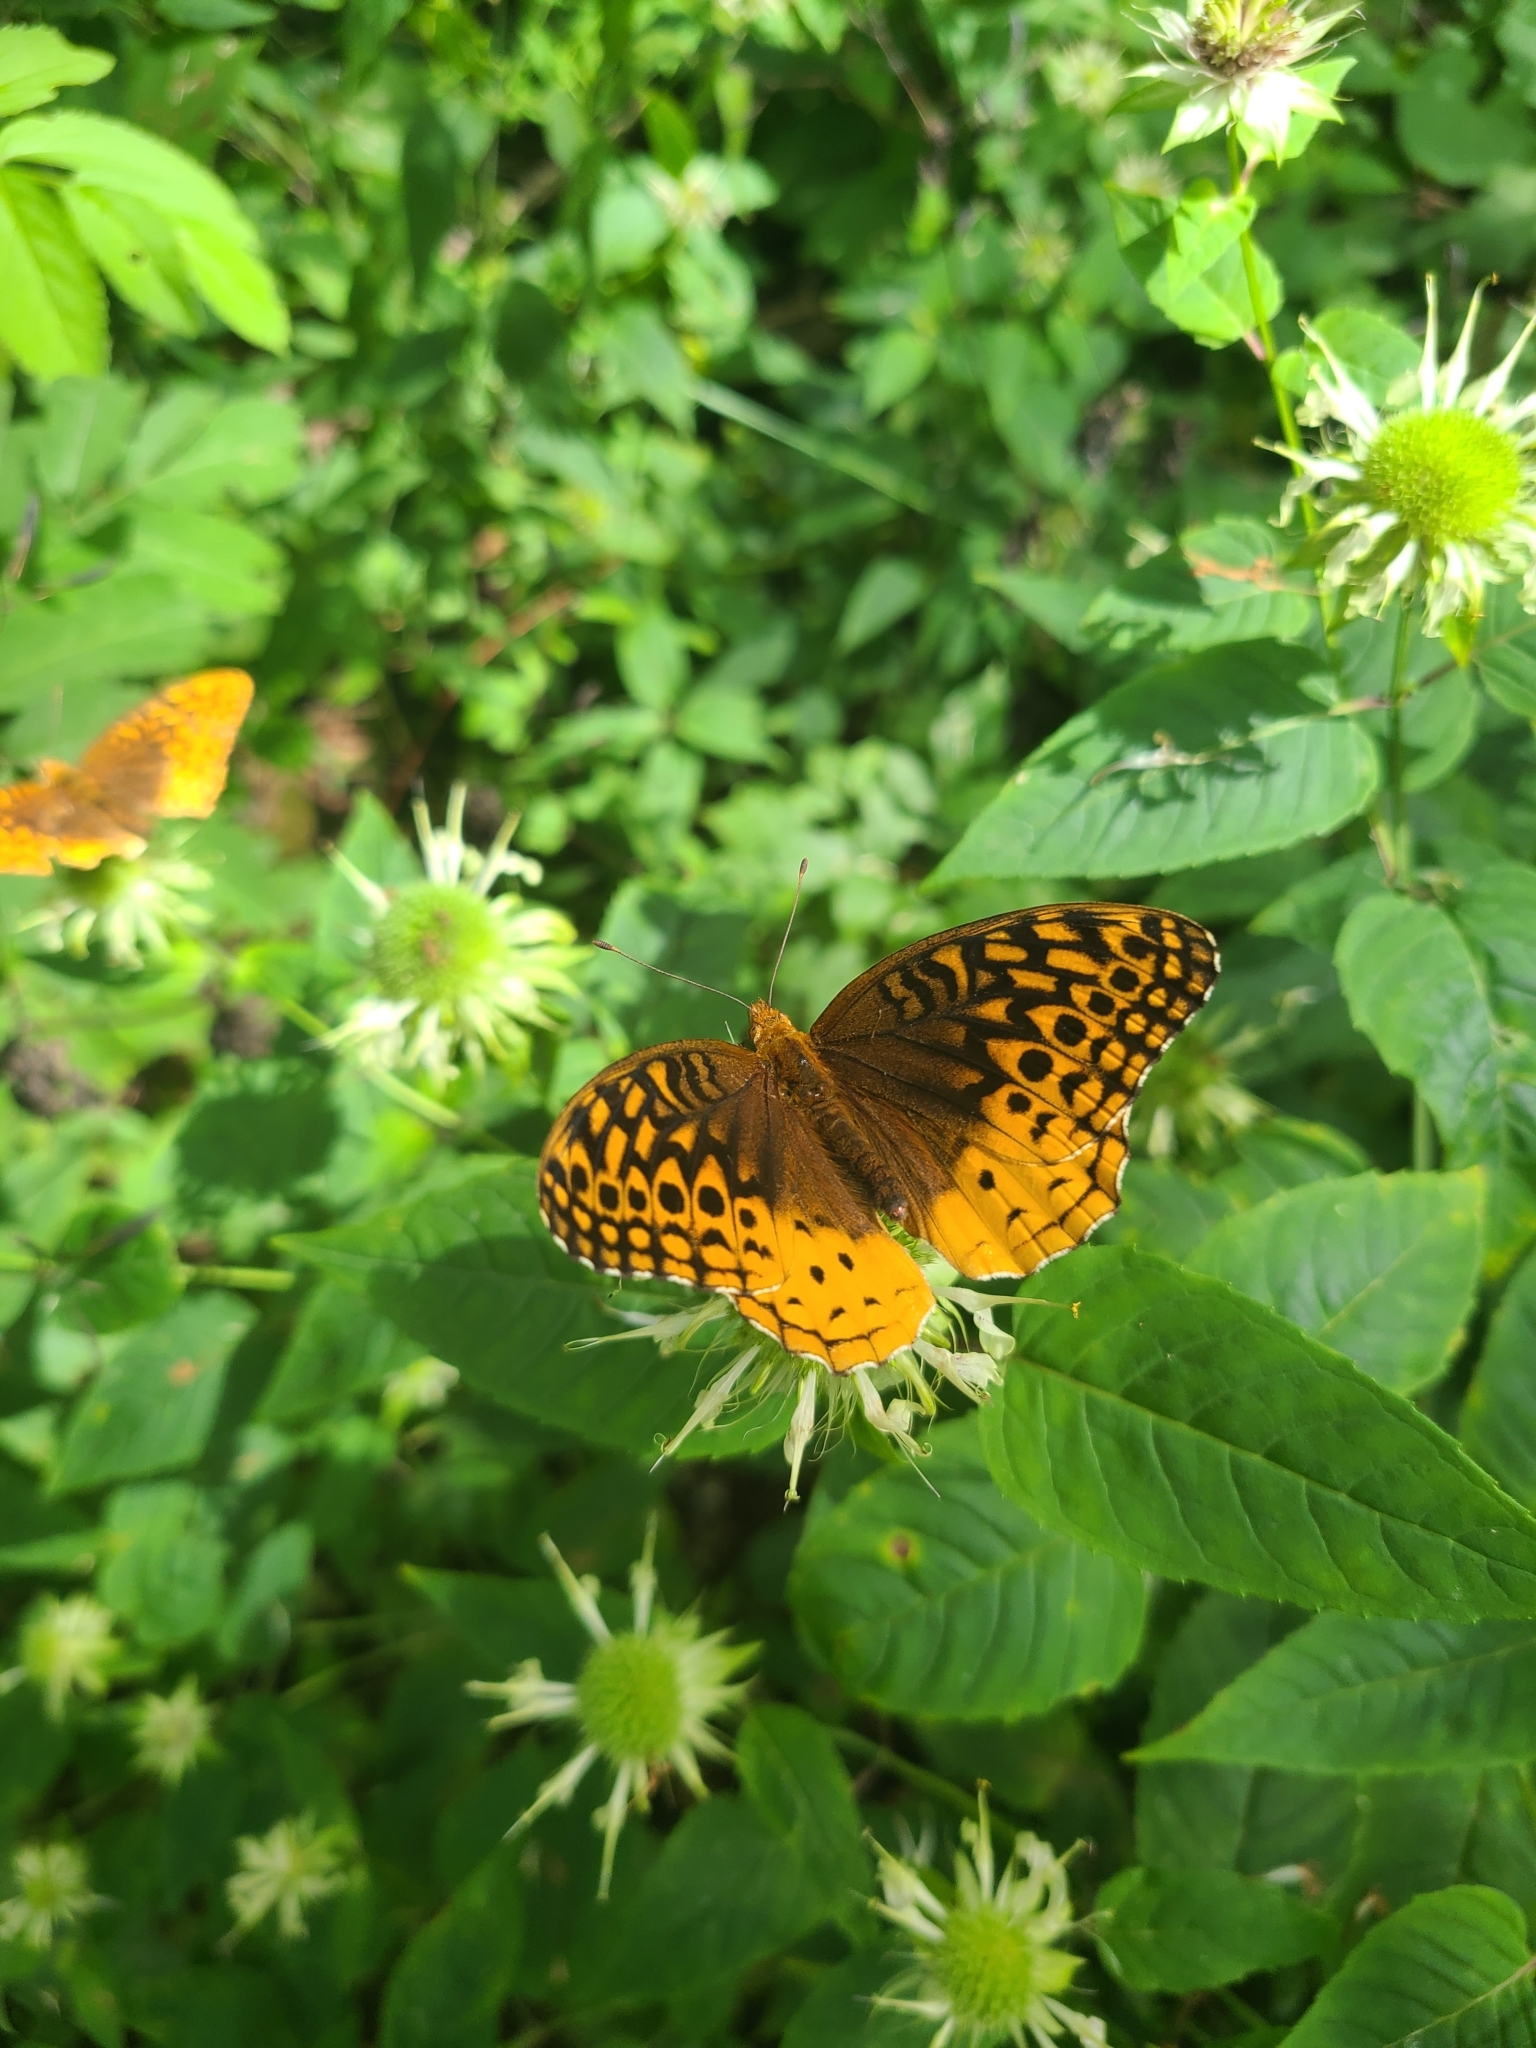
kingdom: Animalia
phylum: Arthropoda
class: Insecta
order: Lepidoptera
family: Nymphalidae
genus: Speyeria
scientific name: Speyeria cybele
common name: Great spangled fritillary
